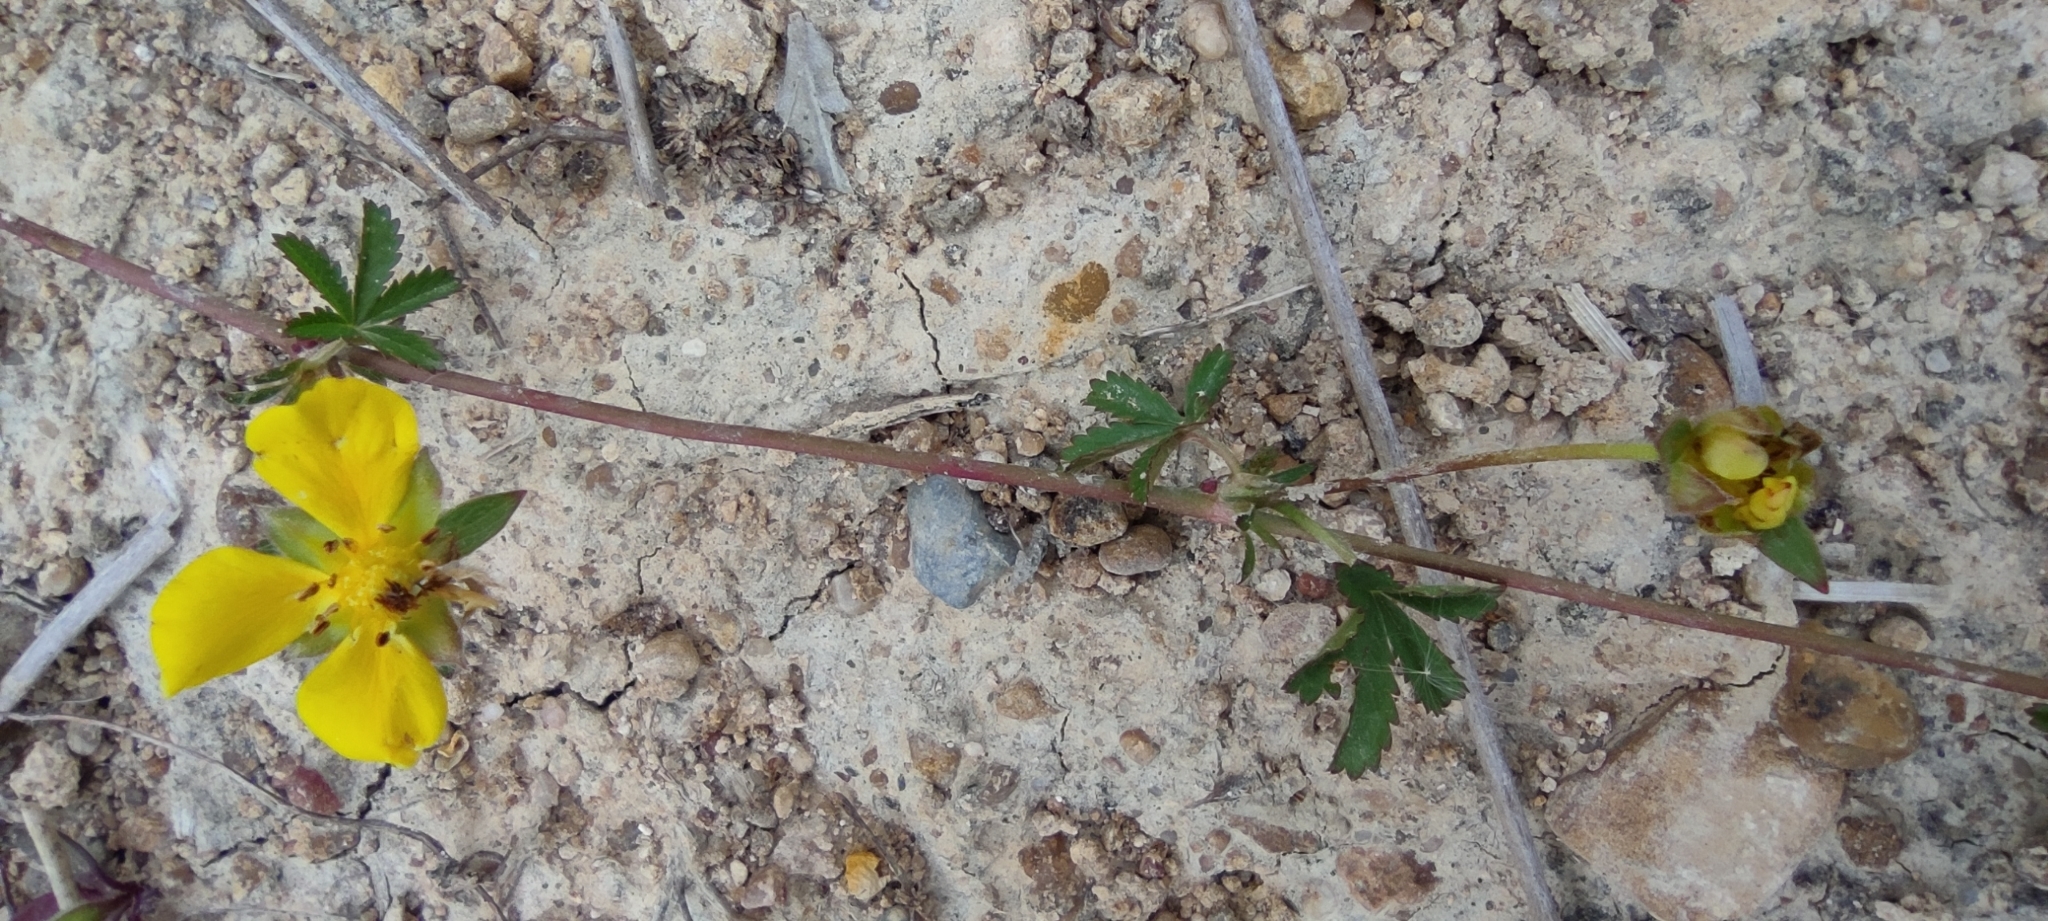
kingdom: Plantae
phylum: Tracheophyta
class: Magnoliopsida
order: Rosales
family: Rosaceae
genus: Potentilla
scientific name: Potentilla reptans
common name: Creeping cinquefoil
